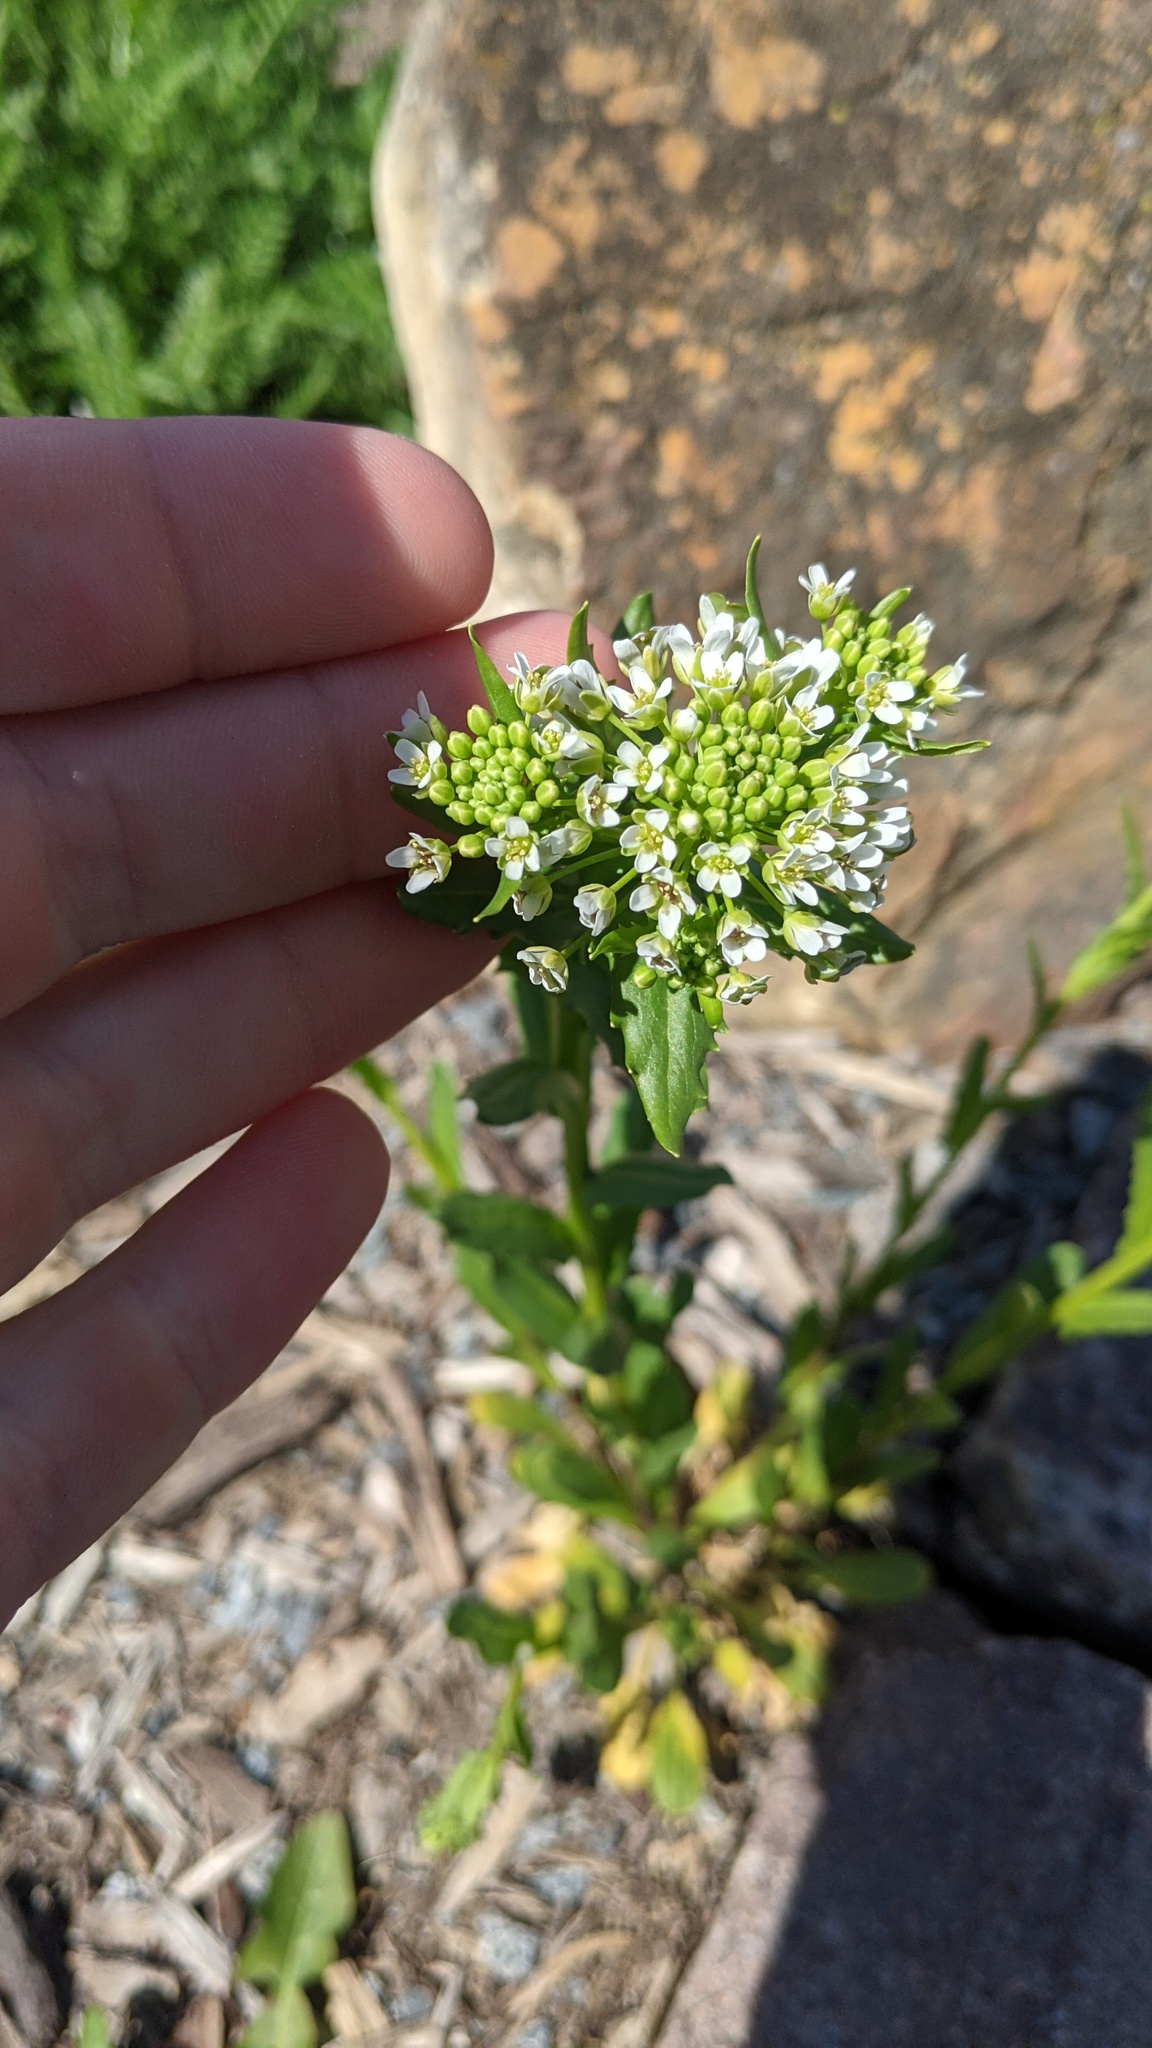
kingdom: Plantae
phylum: Tracheophyta
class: Magnoliopsida
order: Brassicales
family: Brassicaceae
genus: Thlaspi
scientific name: Thlaspi arvense
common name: Field pennycress
